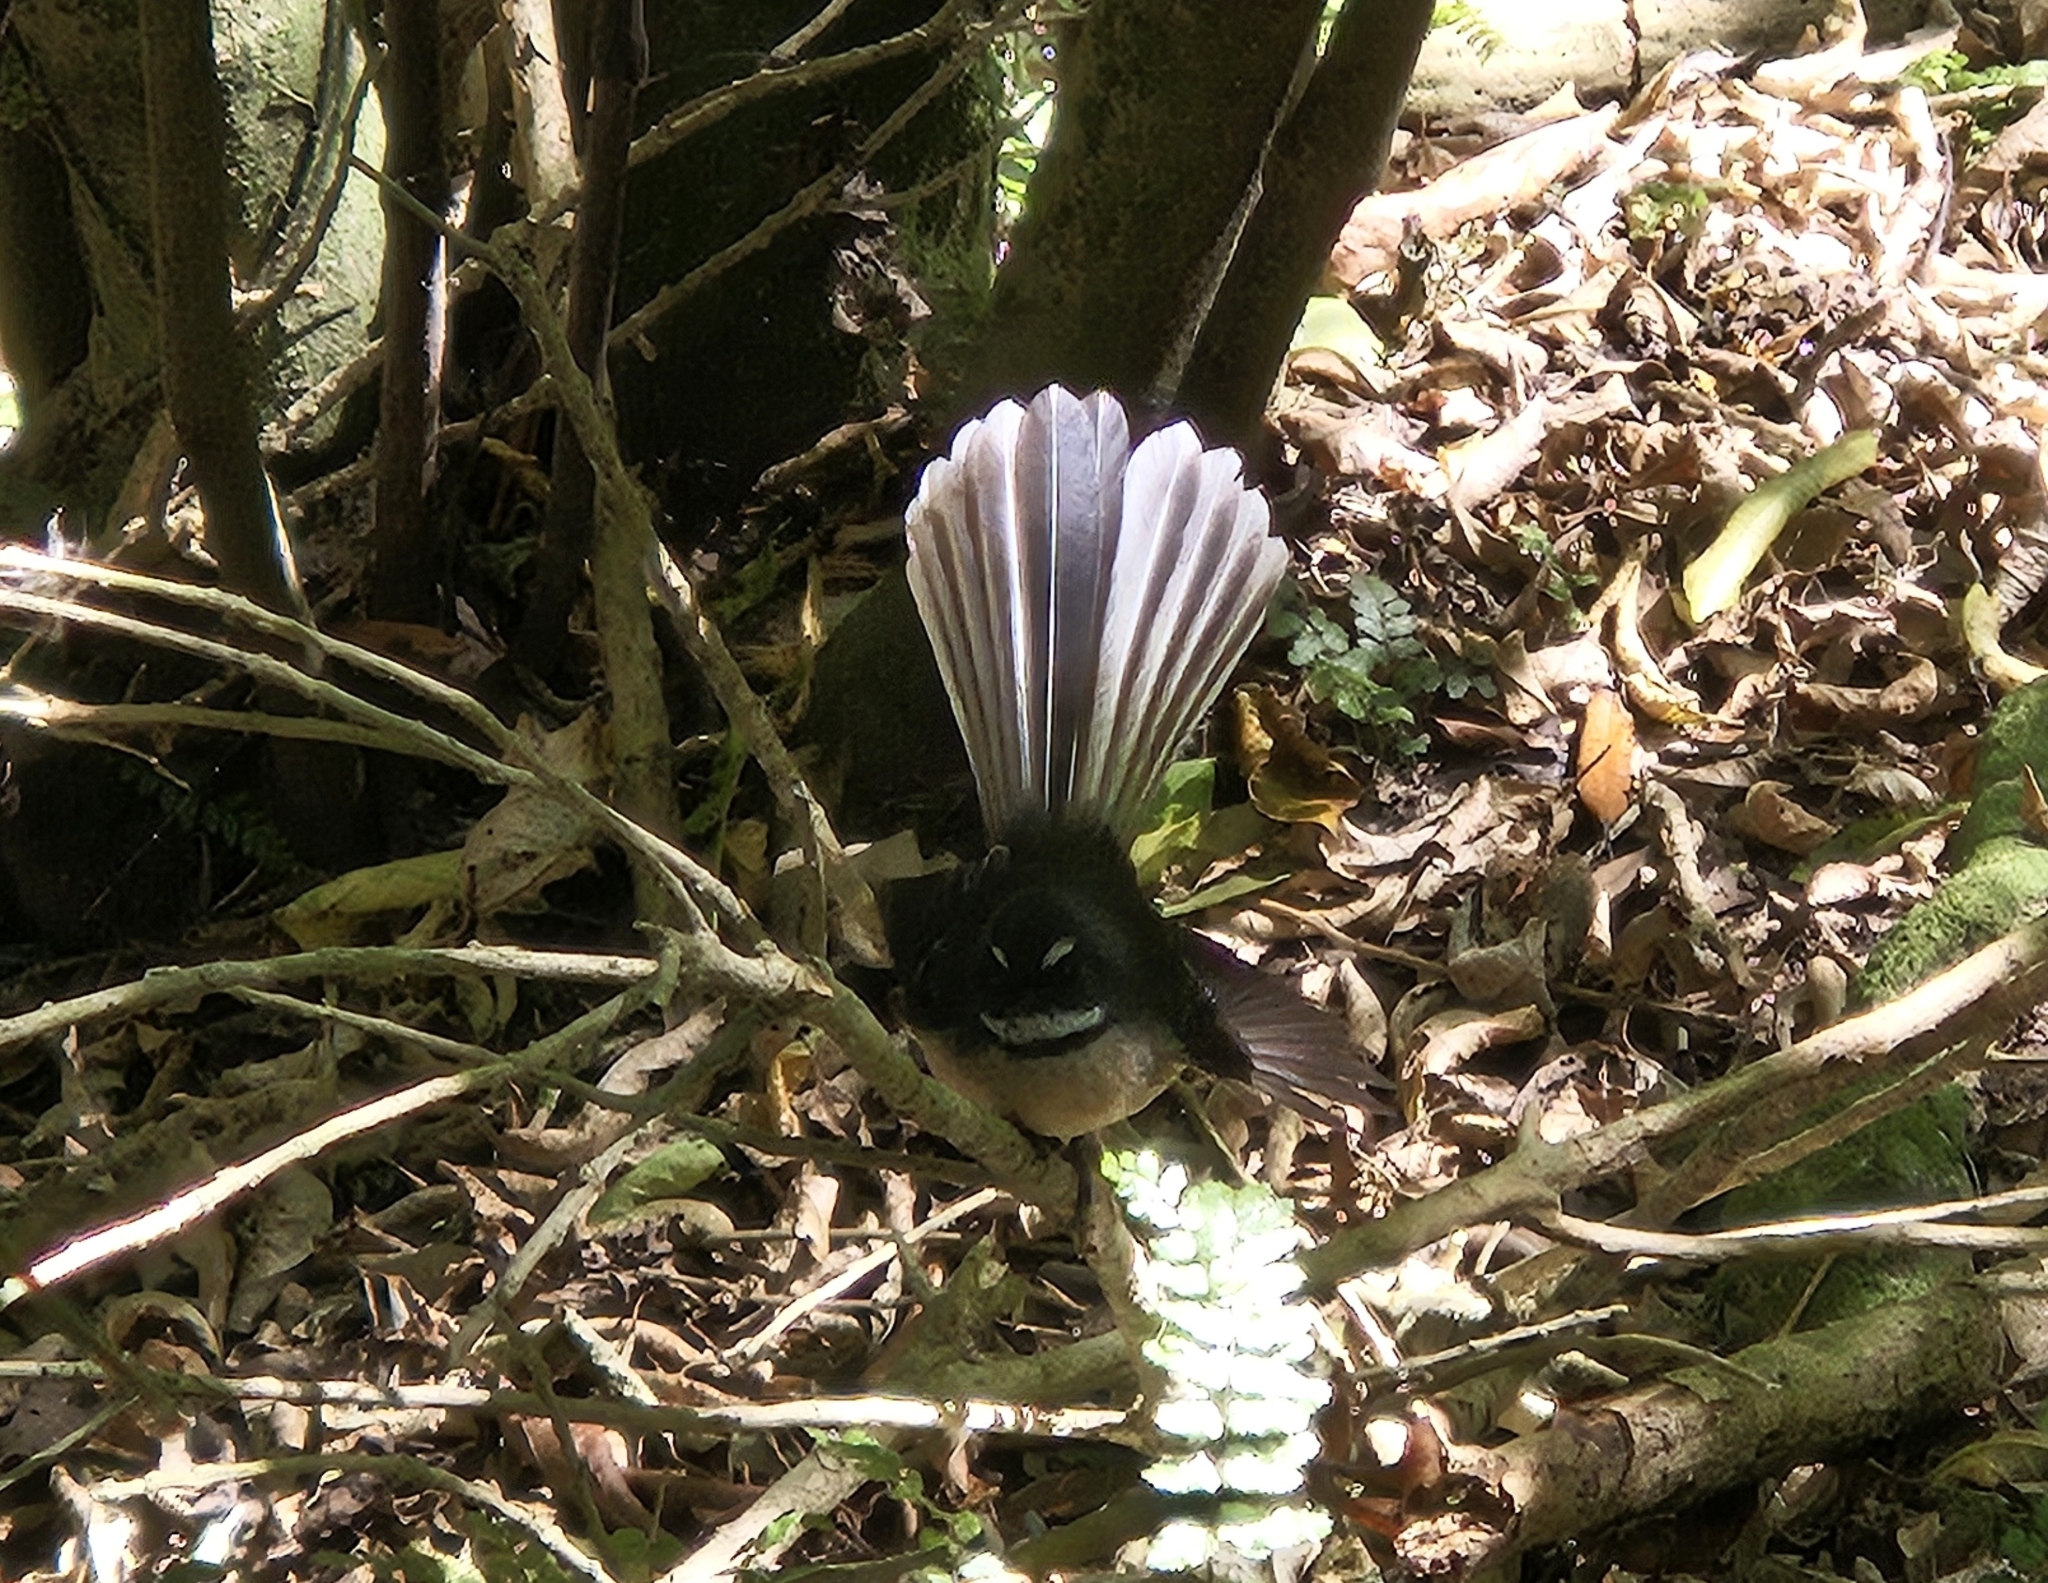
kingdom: Animalia
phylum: Chordata
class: Aves
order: Passeriformes
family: Rhipiduridae
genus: Rhipidura
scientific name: Rhipidura fuliginosa
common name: New zealand fantail
